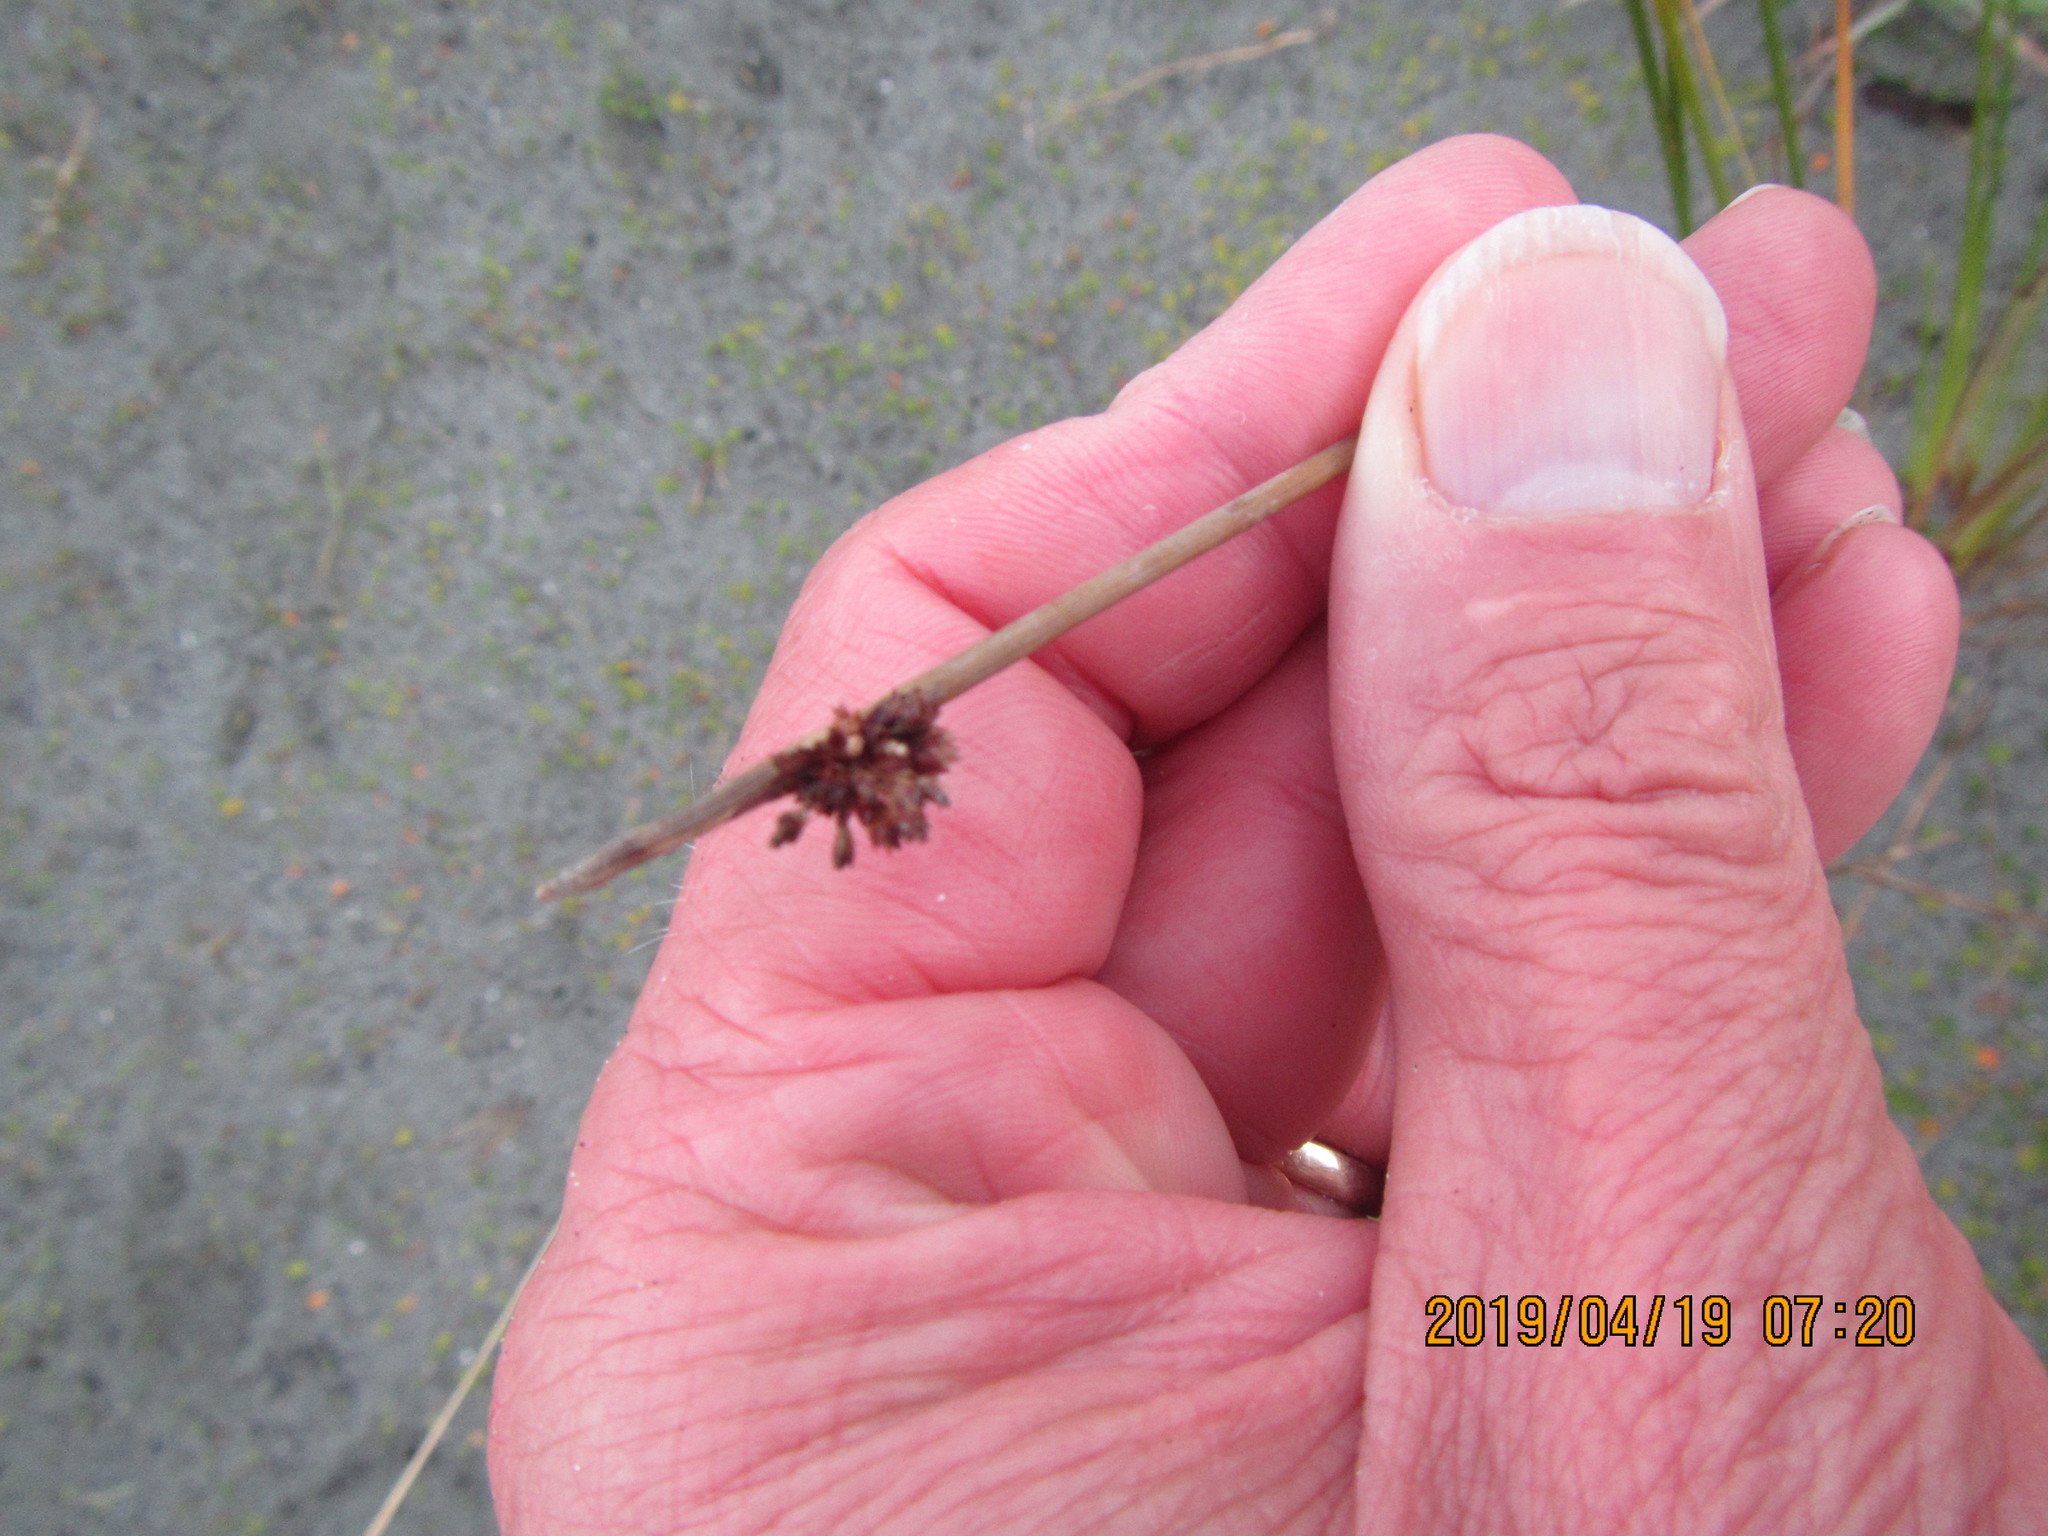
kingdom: Plantae
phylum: Tracheophyta
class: Liliopsida
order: Poales
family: Cyperaceae
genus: Ficinia
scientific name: Ficinia nodosa
